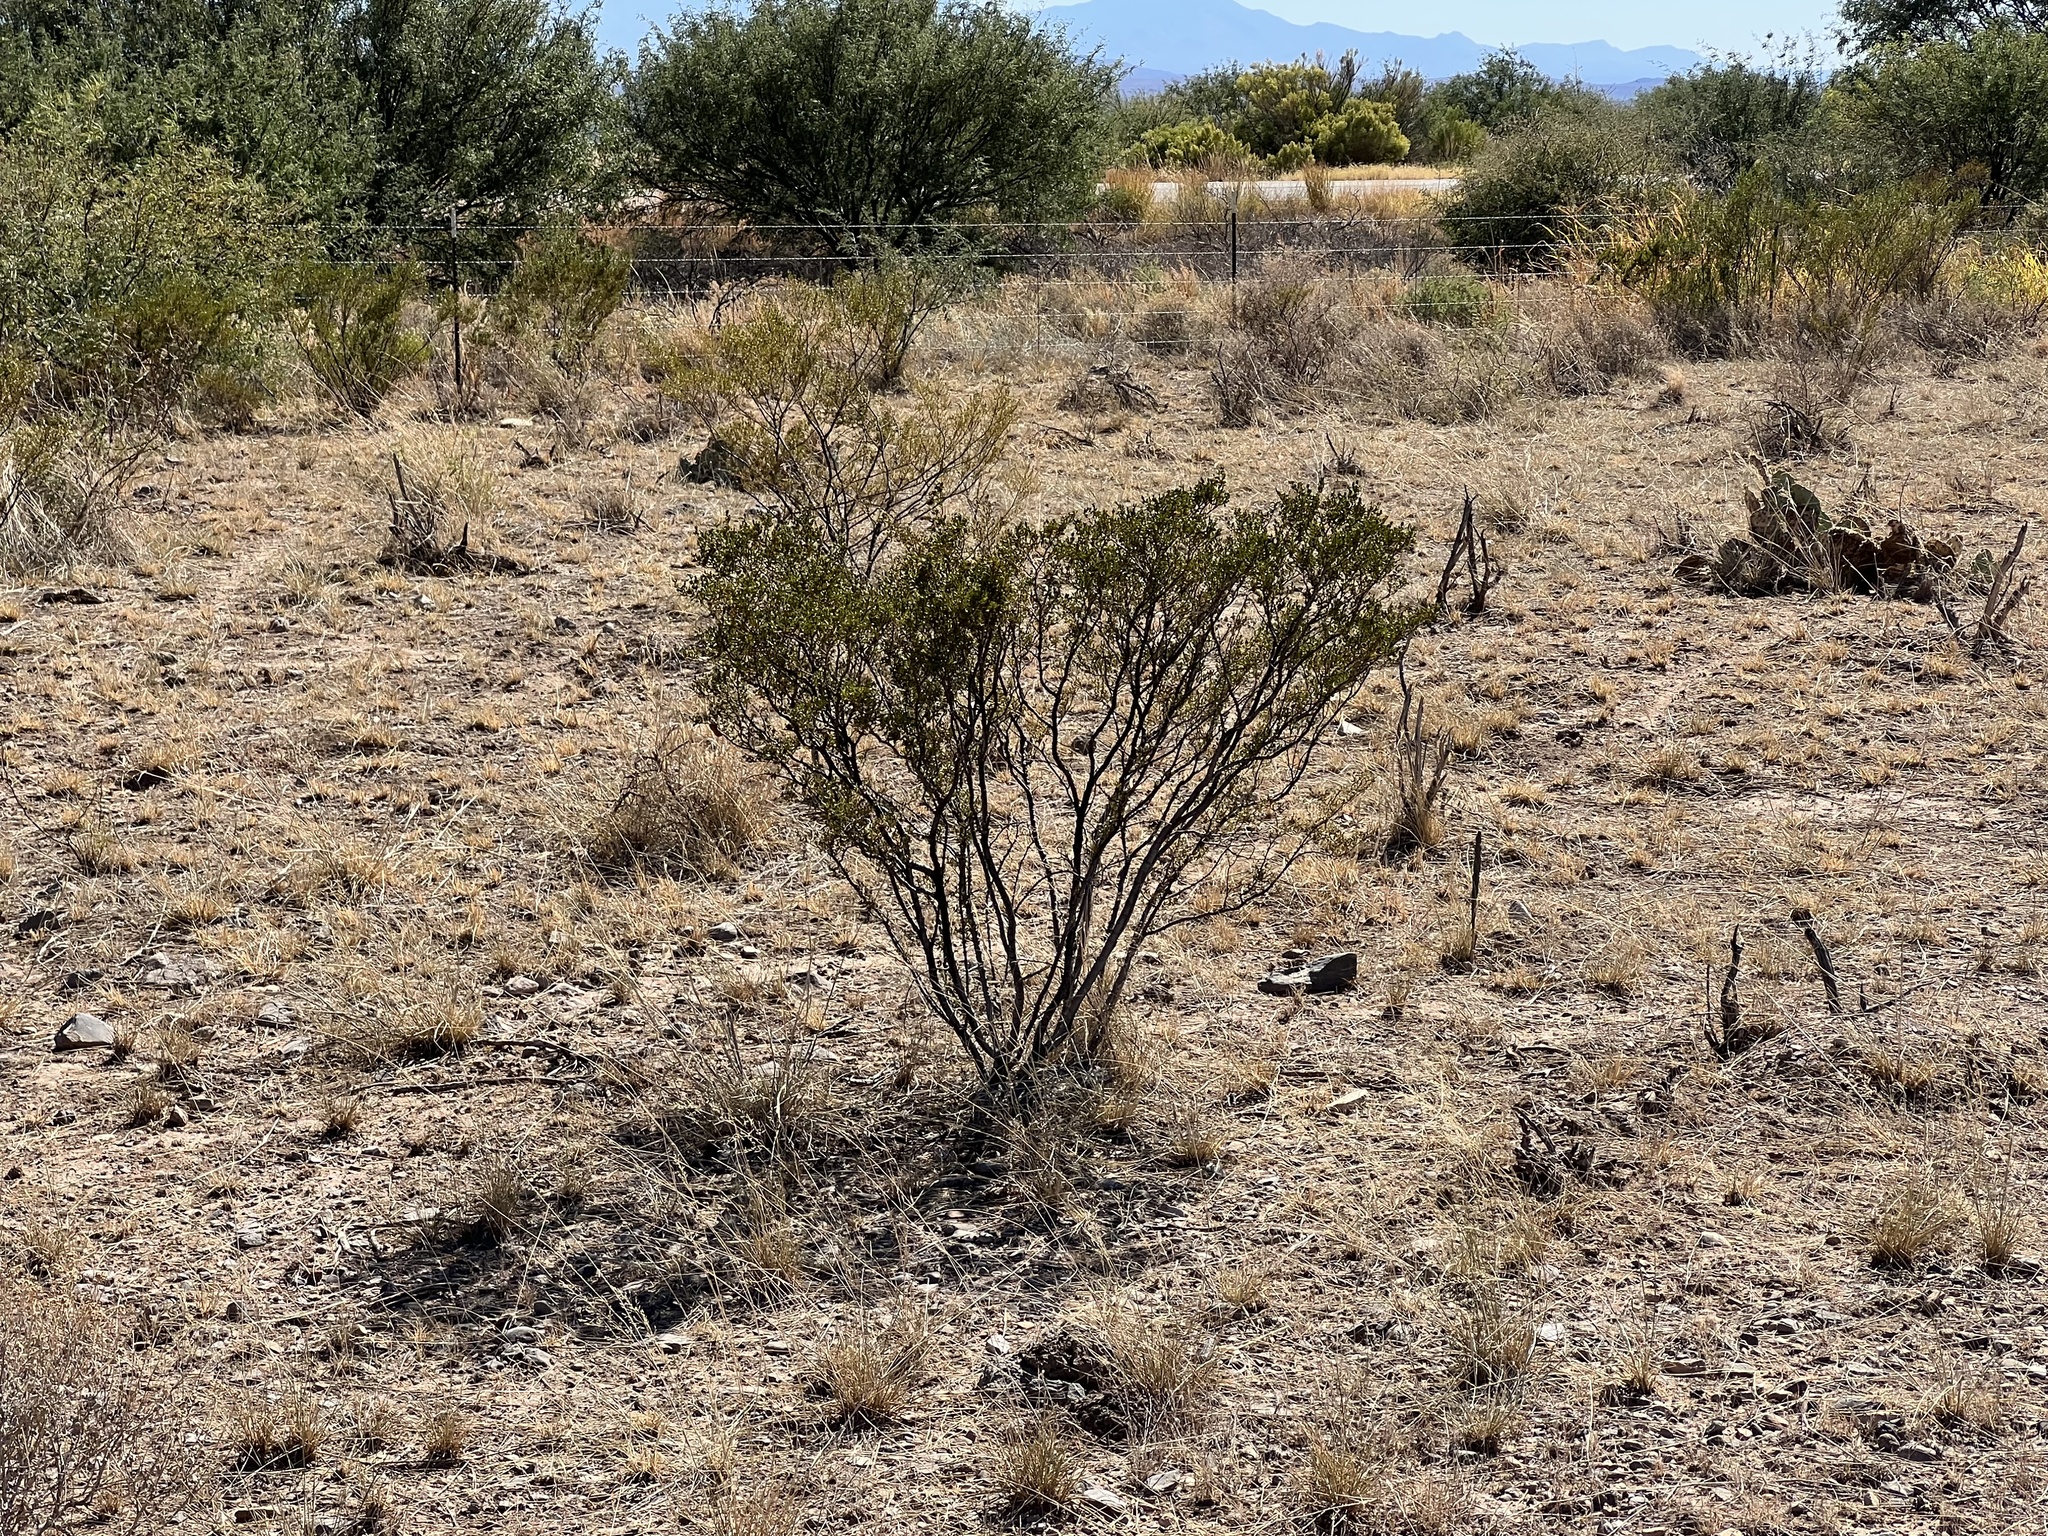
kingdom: Plantae
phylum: Tracheophyta
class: Magnoliopsida
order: Zygophyllales
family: Zygophyllaceae
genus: Larrea
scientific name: Larrea tridentata
